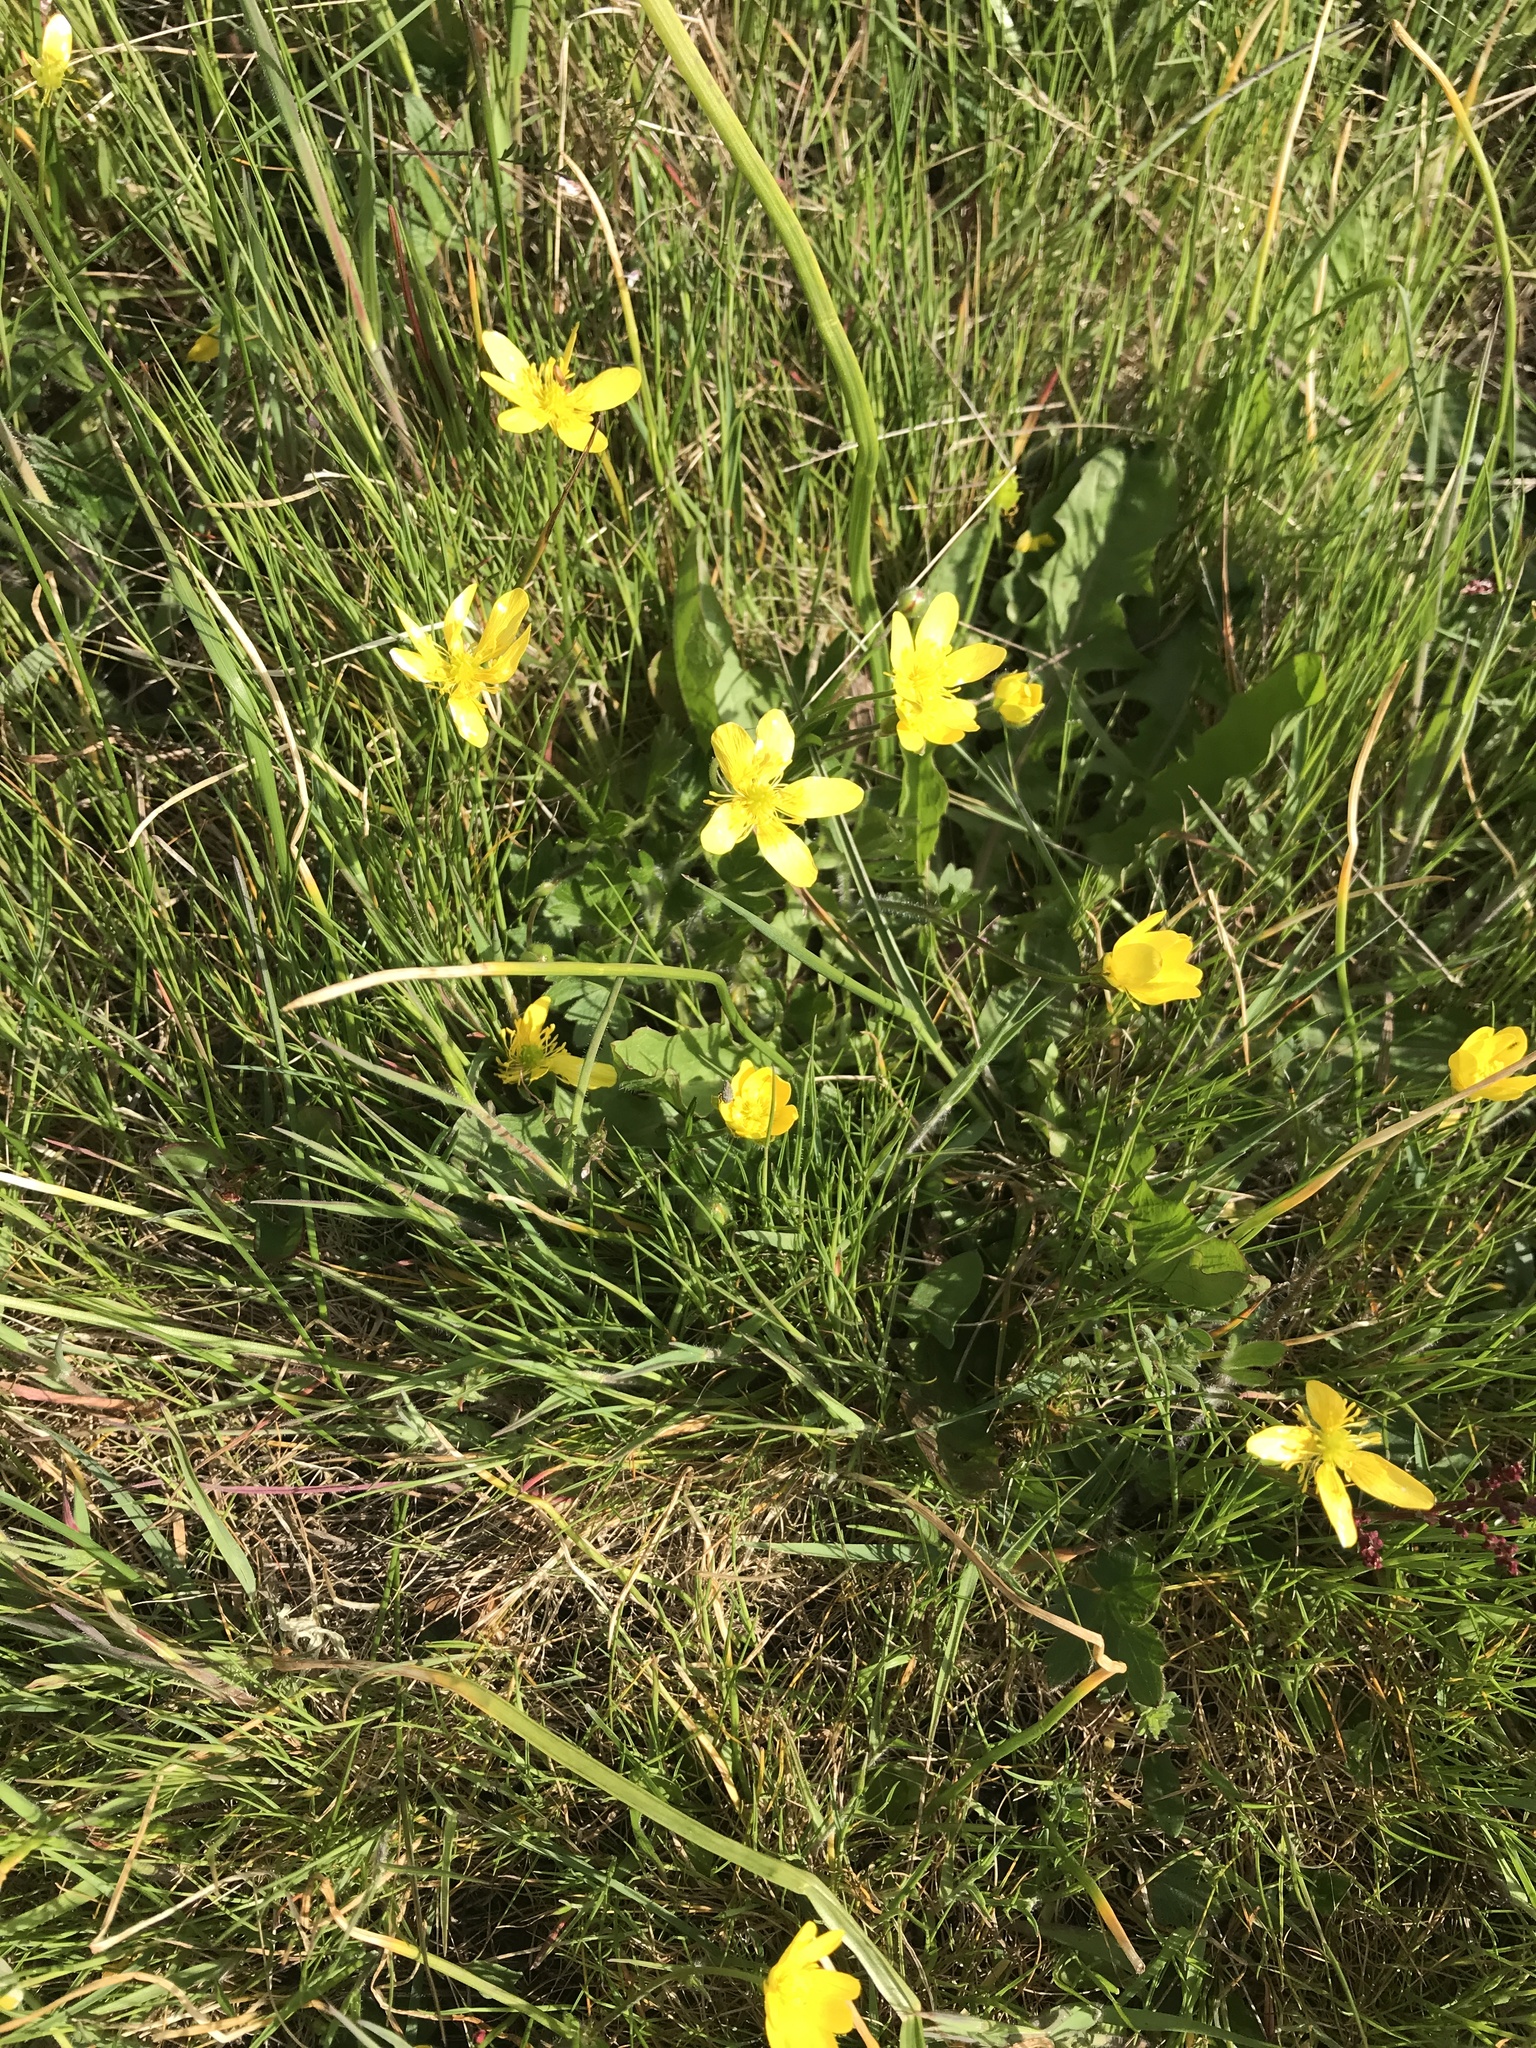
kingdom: Plantae
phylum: Tracheophyta
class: Magnoliopsida
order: Ranunculales
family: Ranunculaceae
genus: Ranunculus
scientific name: Ranunculus occidentalis
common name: Western buttercup
